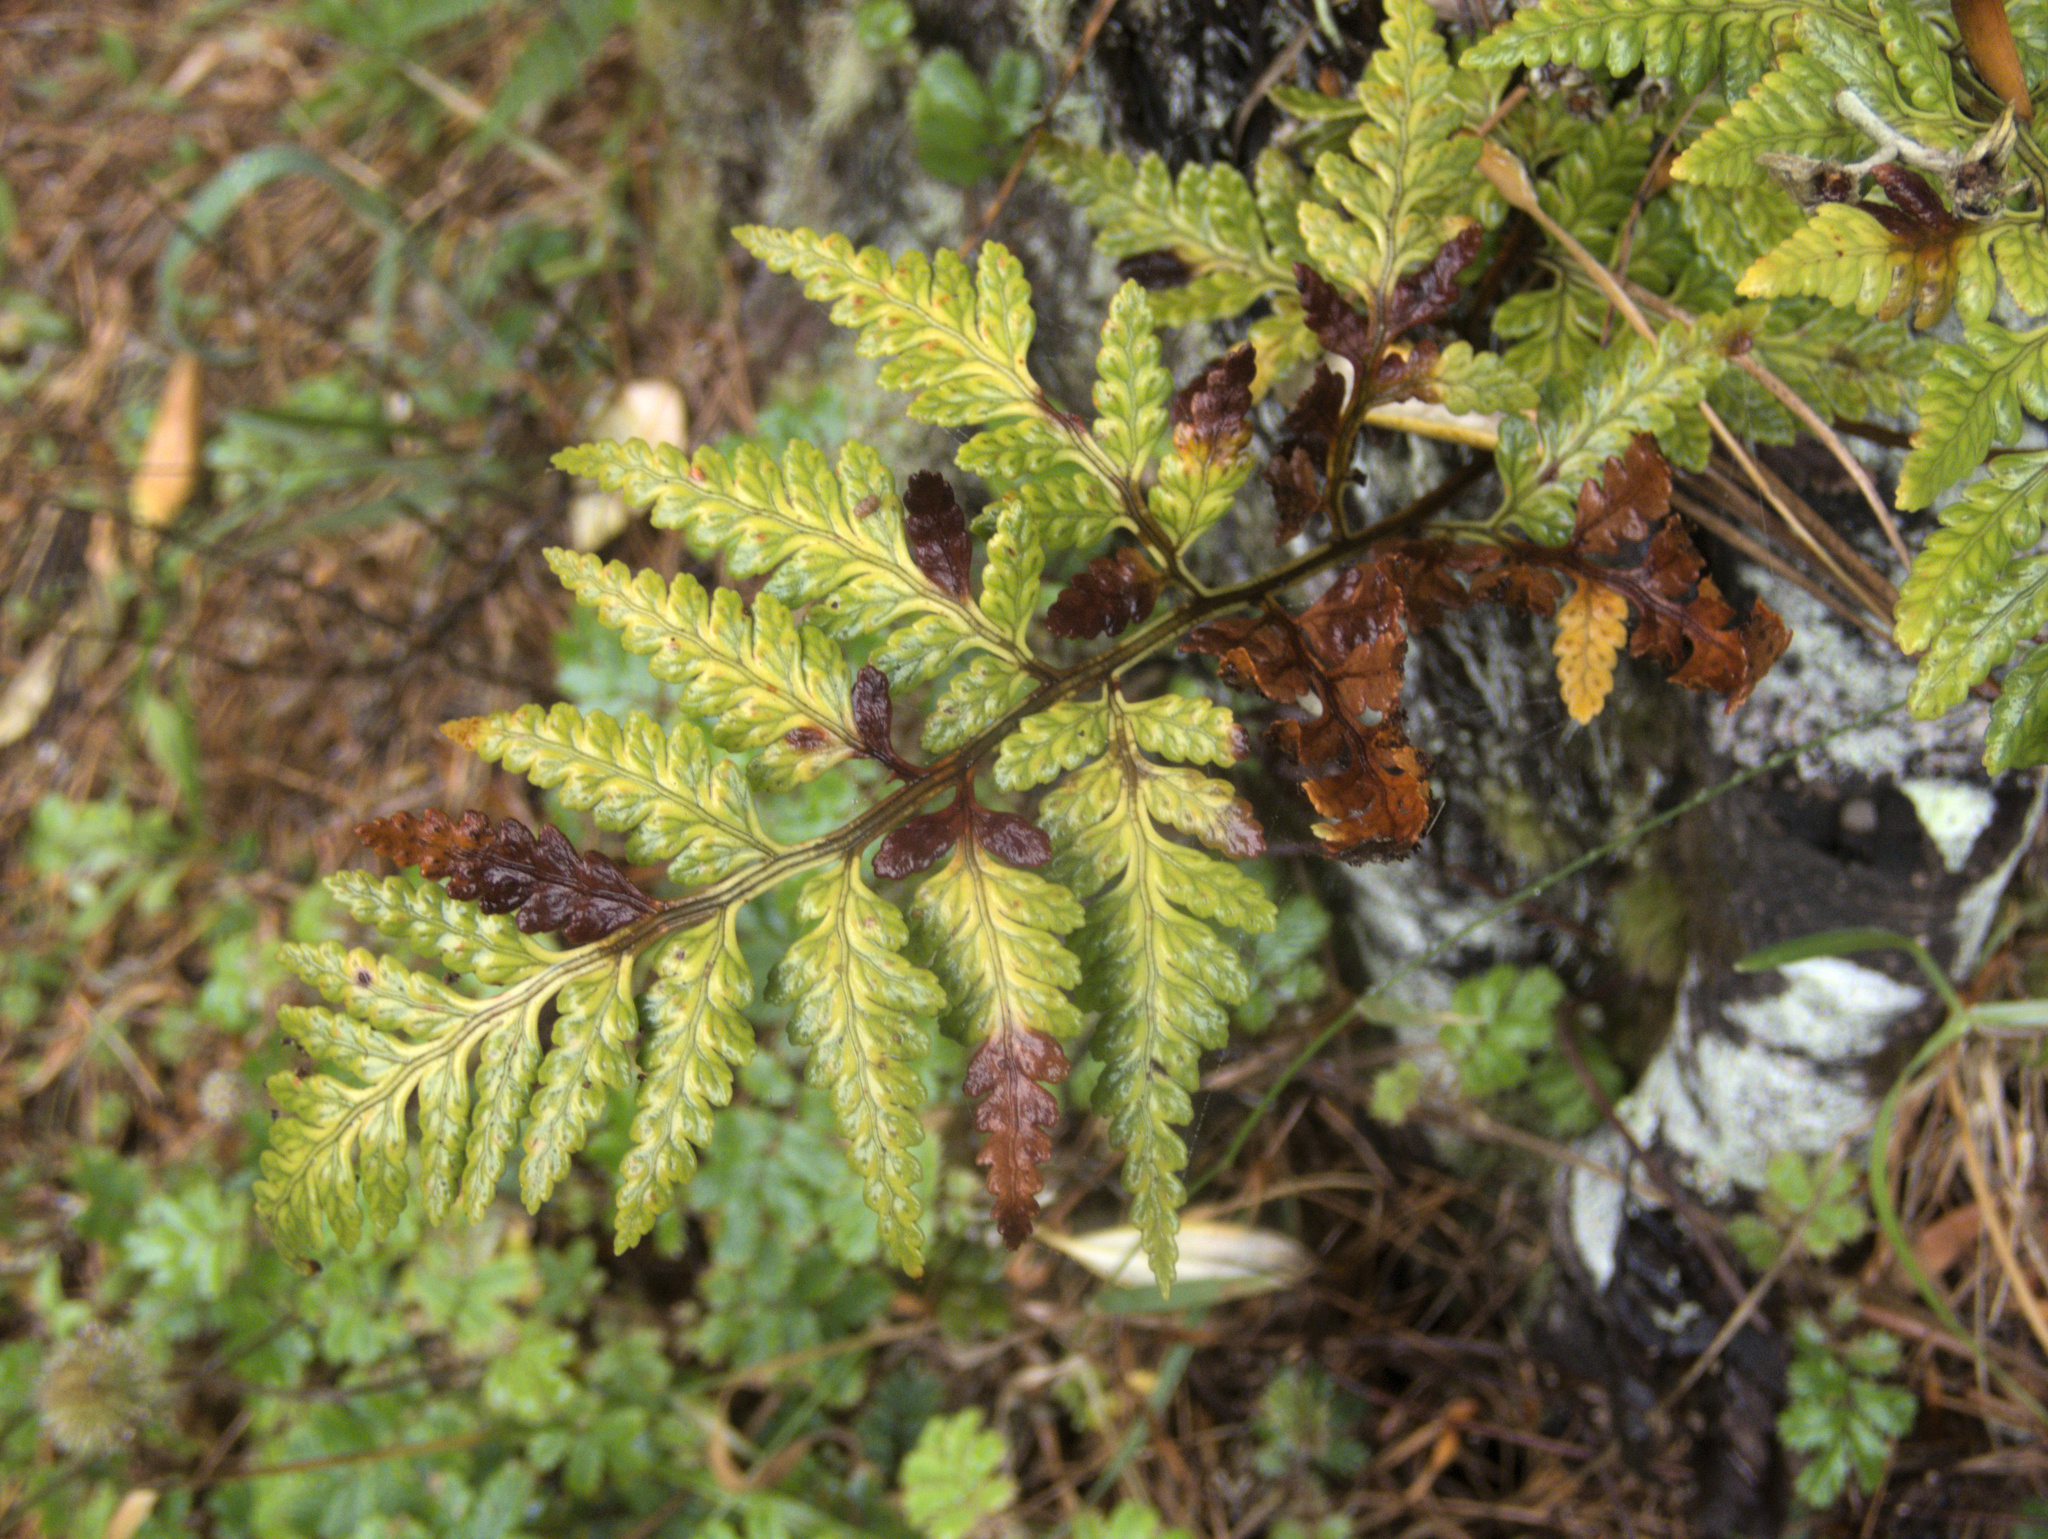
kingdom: Plantae
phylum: Tracheophyta
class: Polypodiopsida
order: Polypodiales
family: Dryopteridaceae
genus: Rumohra
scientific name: Rumohra adiantiformis
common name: Leather fern
